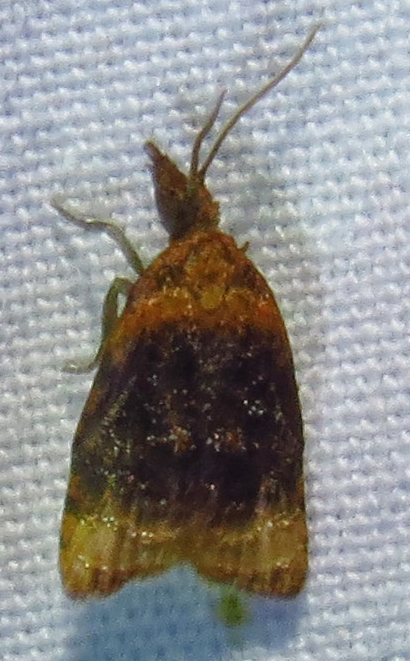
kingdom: Animalia
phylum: Arthropoda
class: Insecta
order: Lepidoptera
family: Tortricidae
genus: Platynota
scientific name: Platynota flavedana
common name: Black-shaded platynota moth
